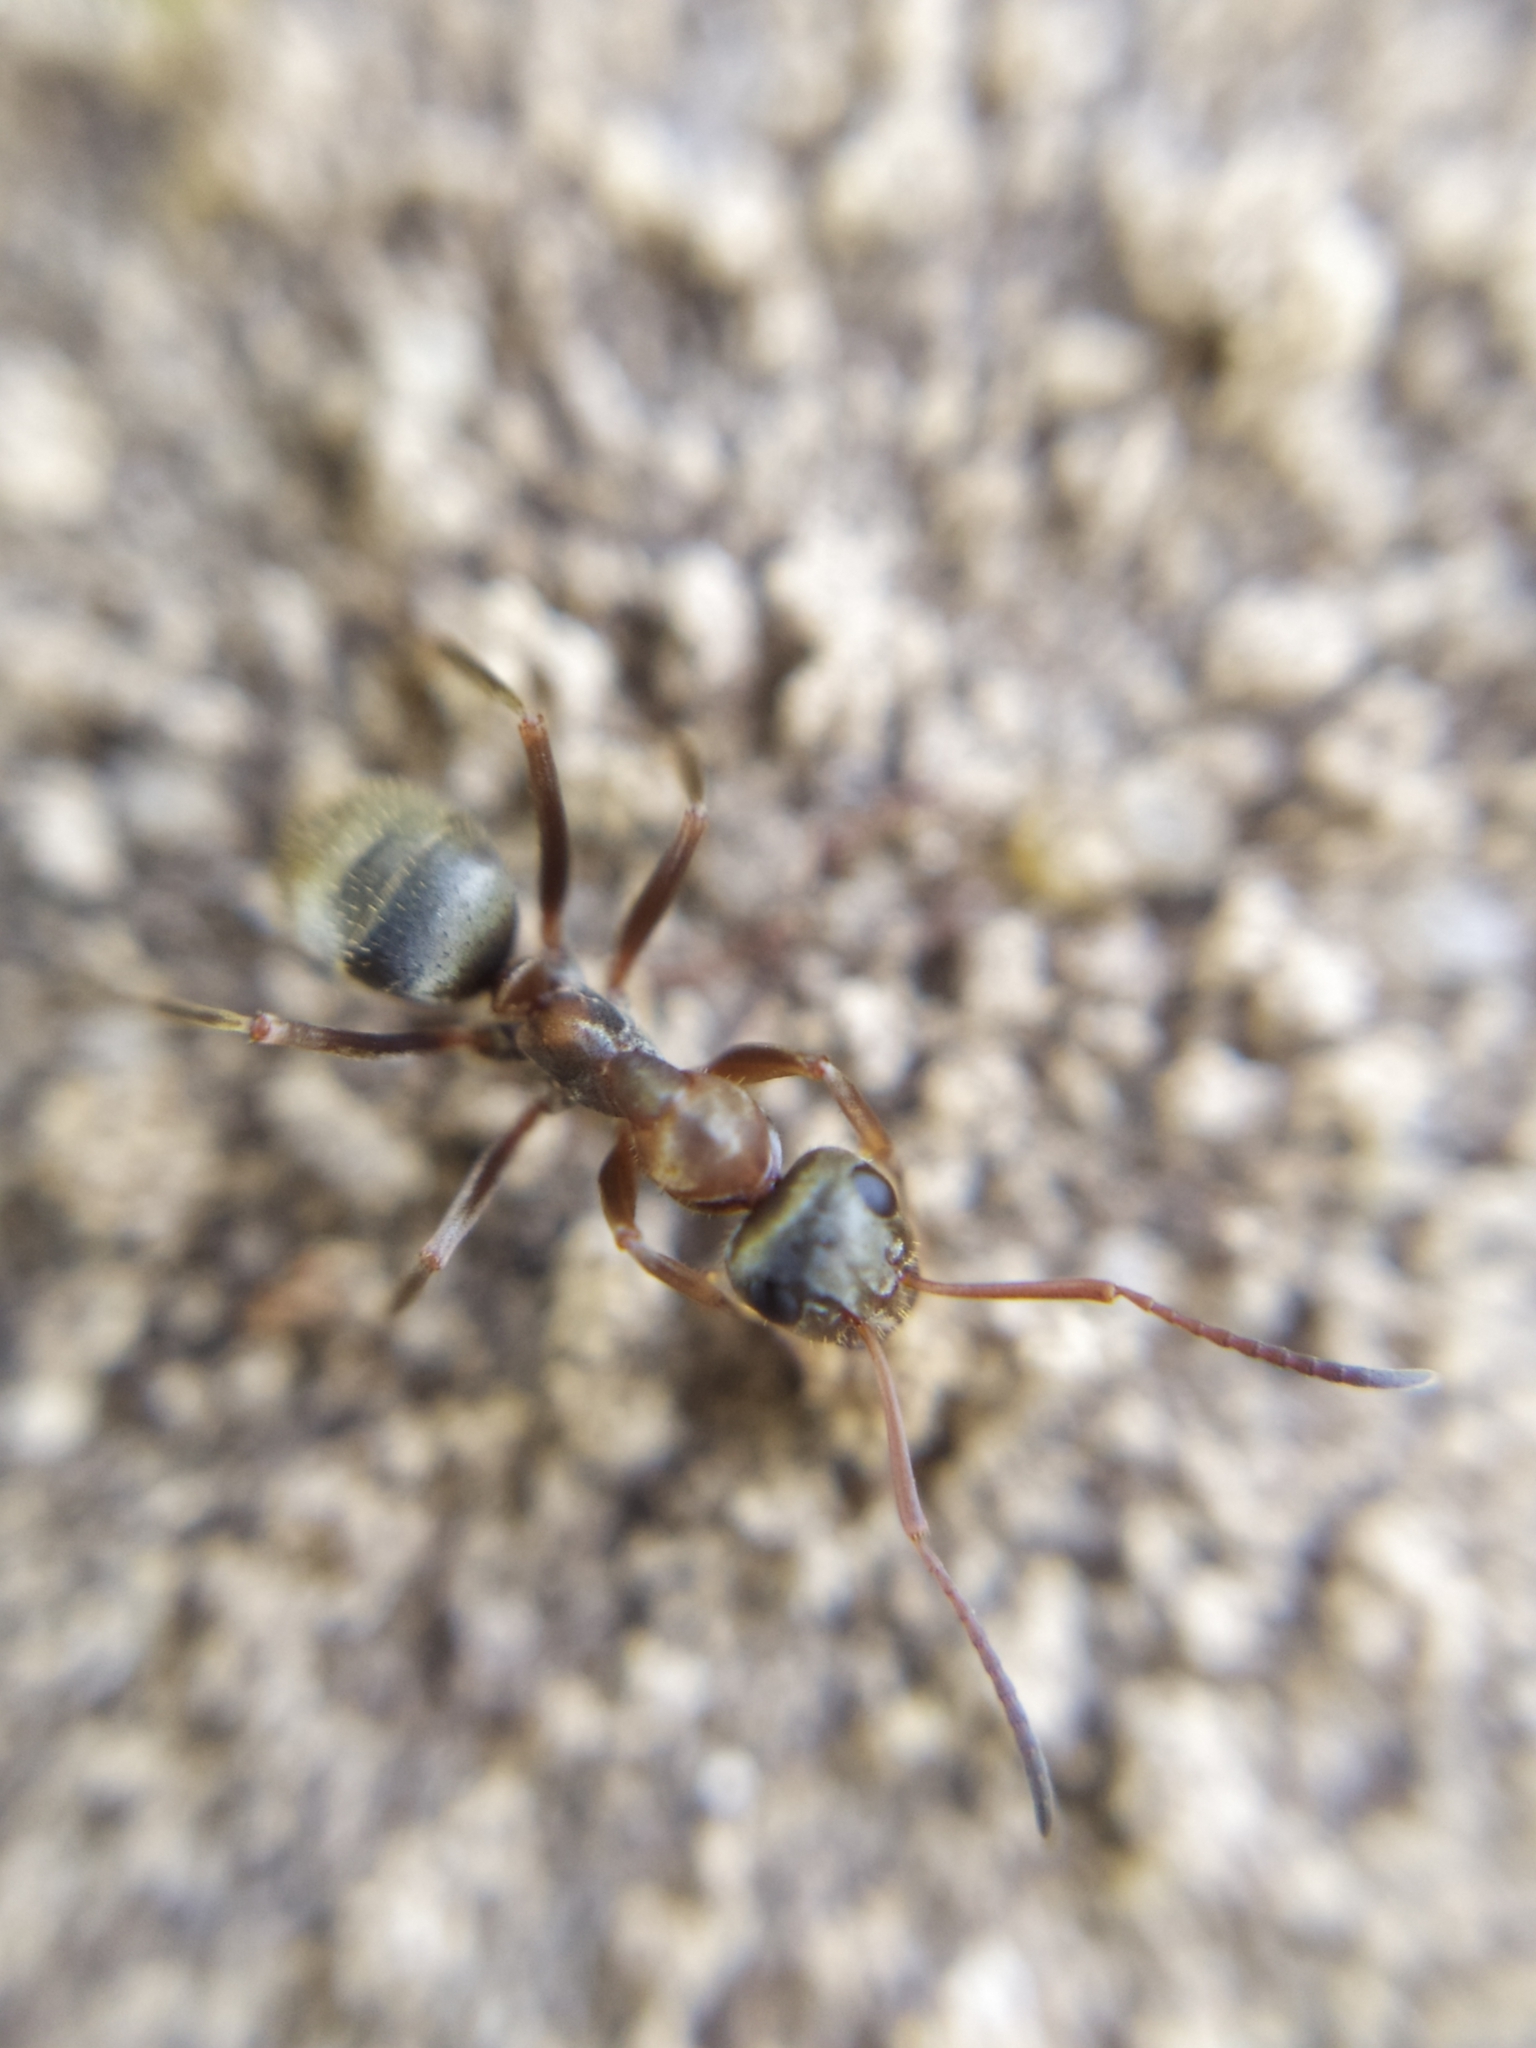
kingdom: Animalia
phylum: Arthropoda
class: Insecta
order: Hymenoptera
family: Formicidae
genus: Formica
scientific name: Formica cinerea
